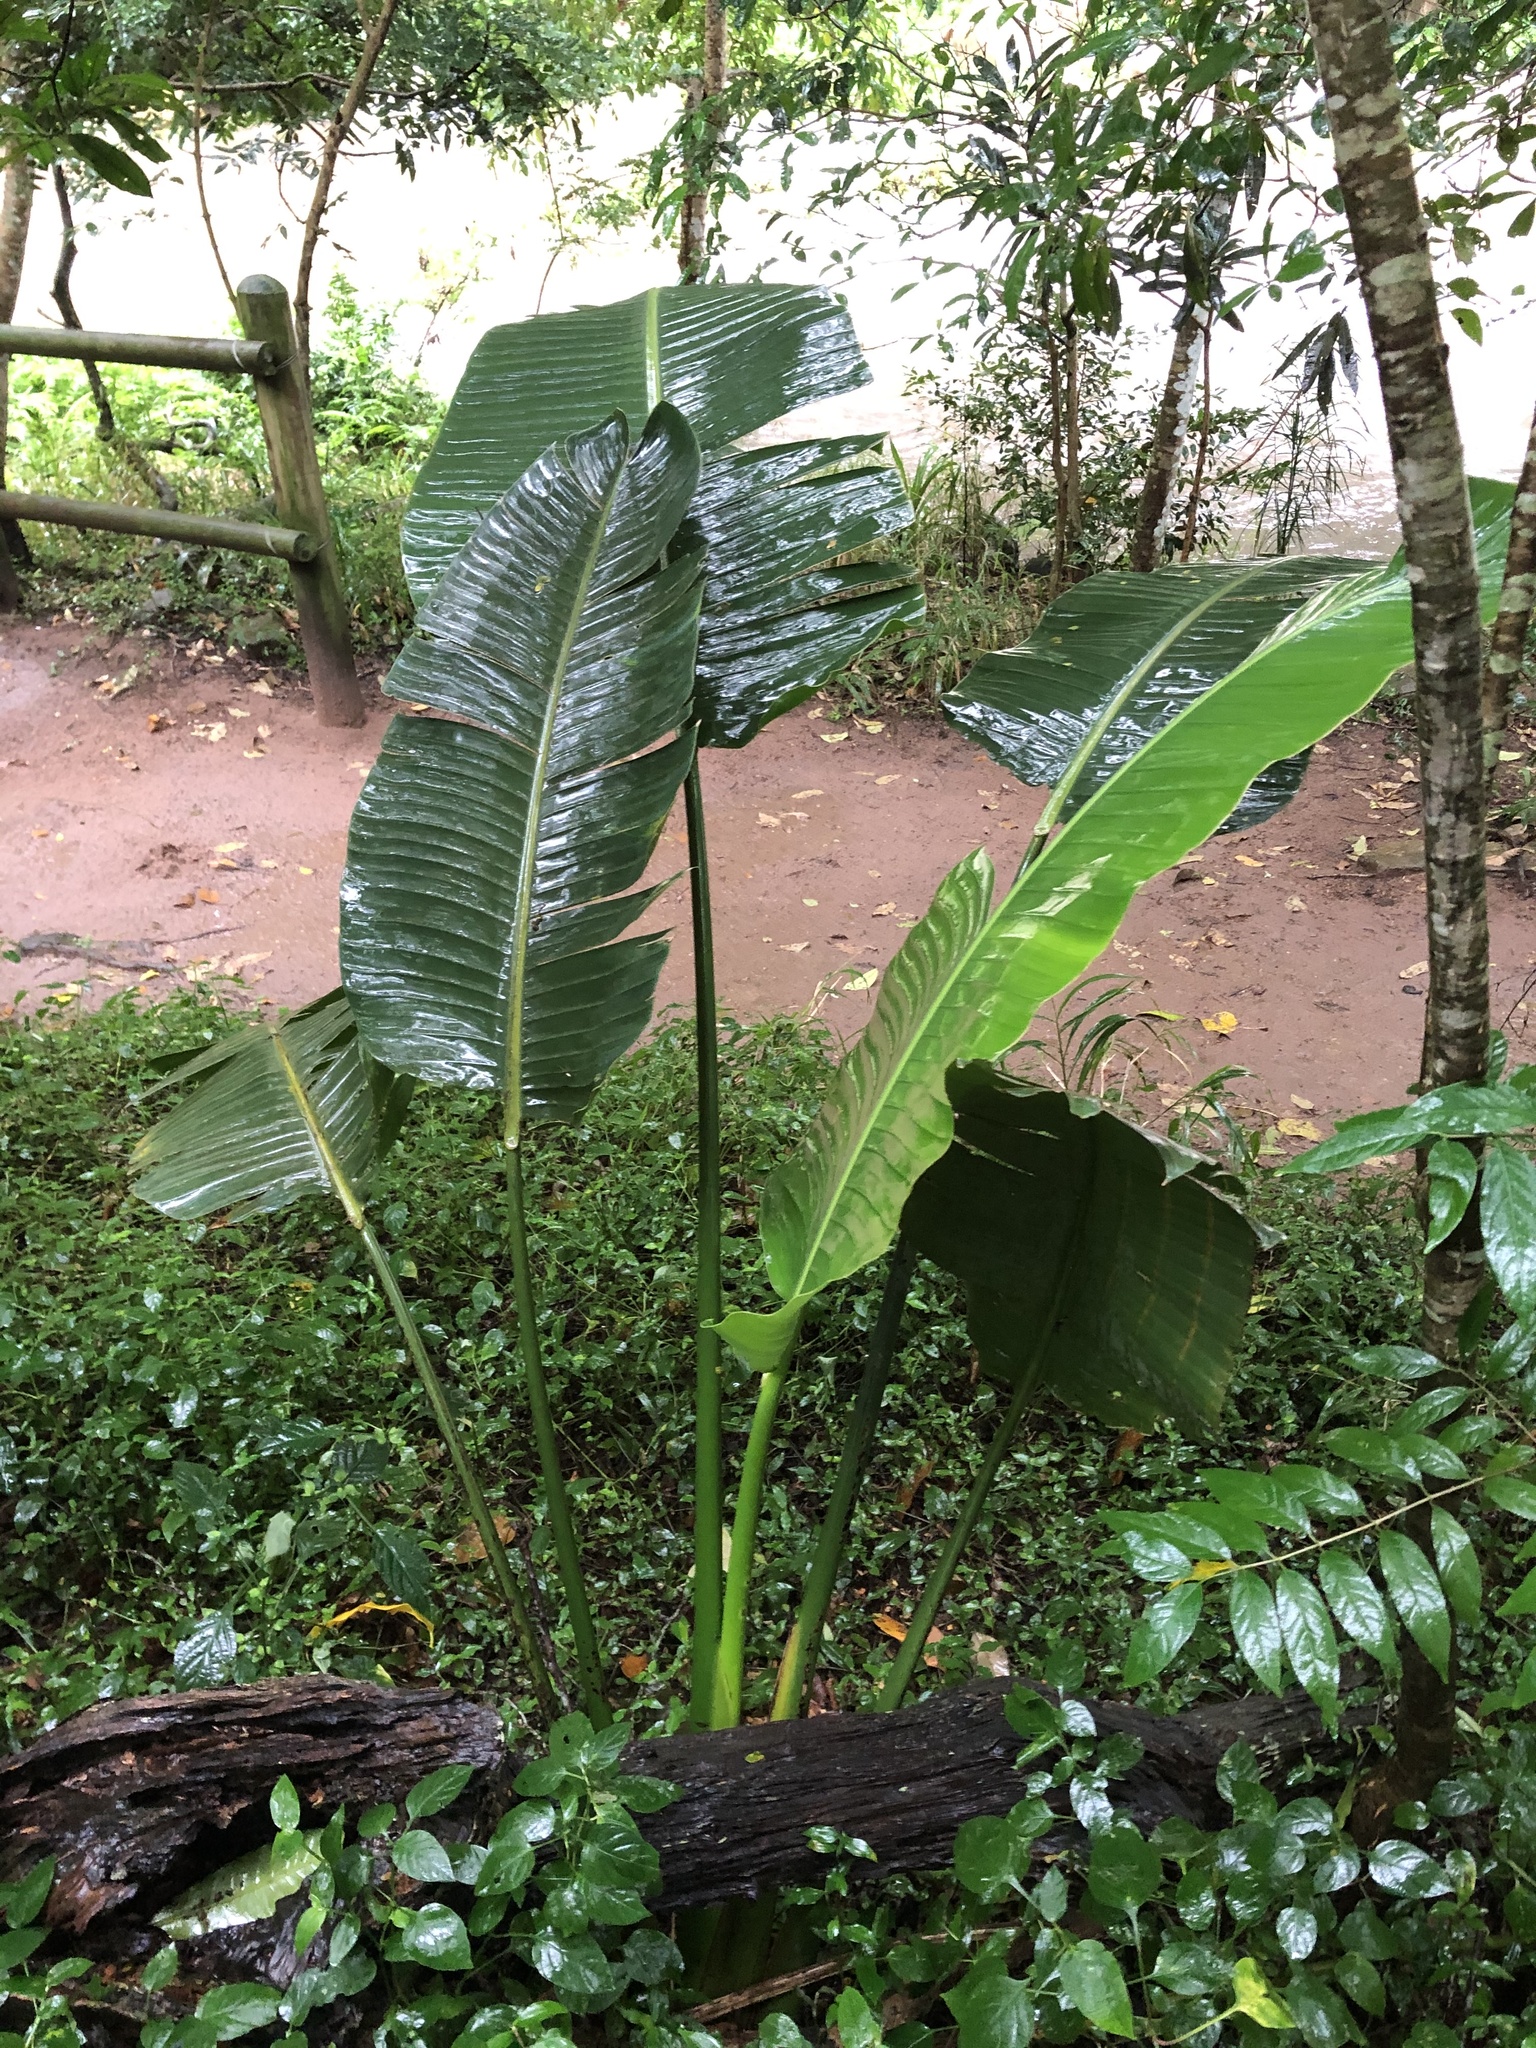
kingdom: Plantae
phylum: Tracheophyta
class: Liliopsida
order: Zingiberales
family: Strelitziaceae
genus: Strelitzia
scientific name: Strelitzia nicolai
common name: Bird-of-paradise tree
